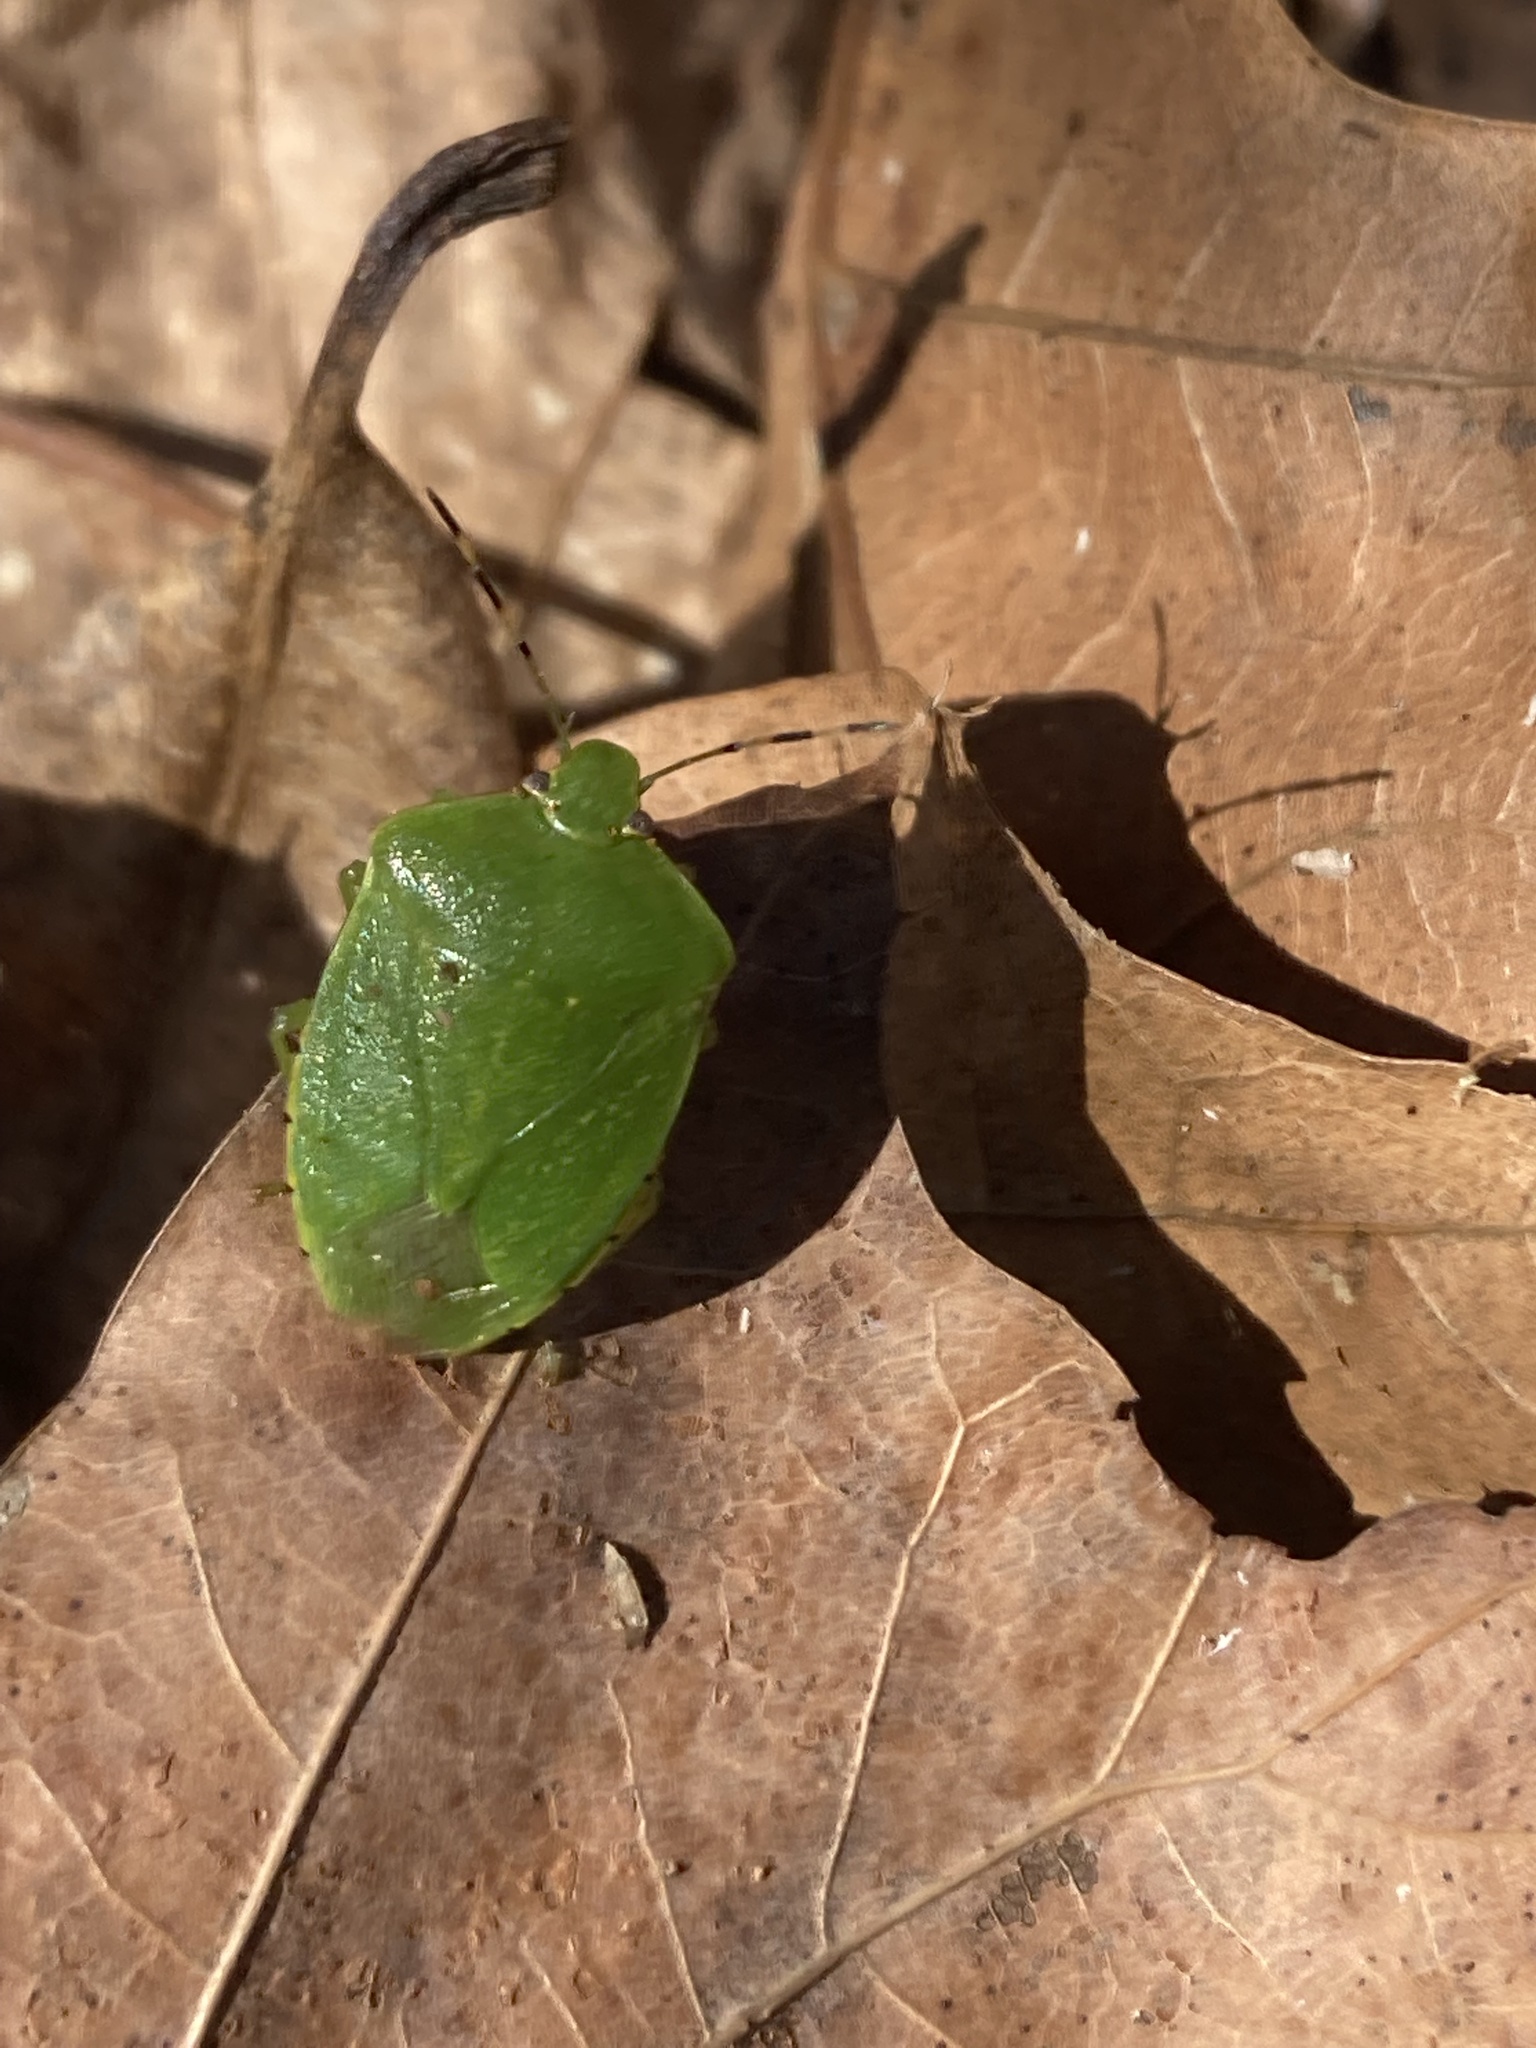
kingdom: Animalia
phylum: Arthropoda
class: Insecta
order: Hemiptera
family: Pentatomidae
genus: Chinavia
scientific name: Chinavia hilaris
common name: Green stink bug
